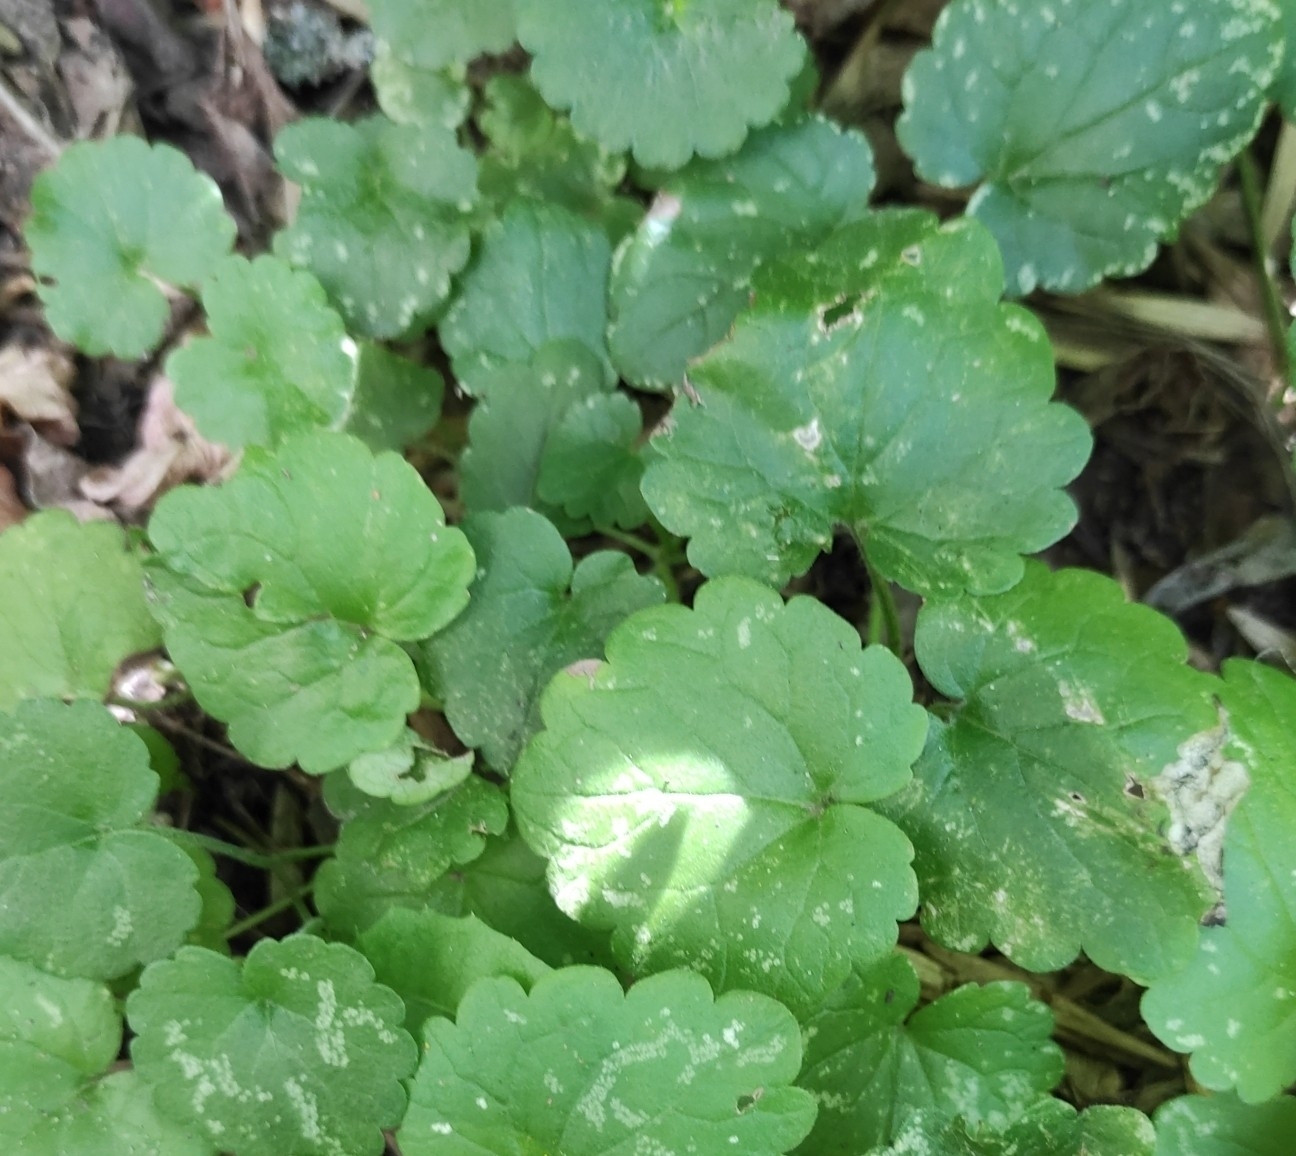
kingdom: Plantae
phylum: Tracheophyta
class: Magnoliopsida
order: Lamiales
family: Lamiaceae
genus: Glechoma
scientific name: Glechoma hederacea
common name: Ground ivy
